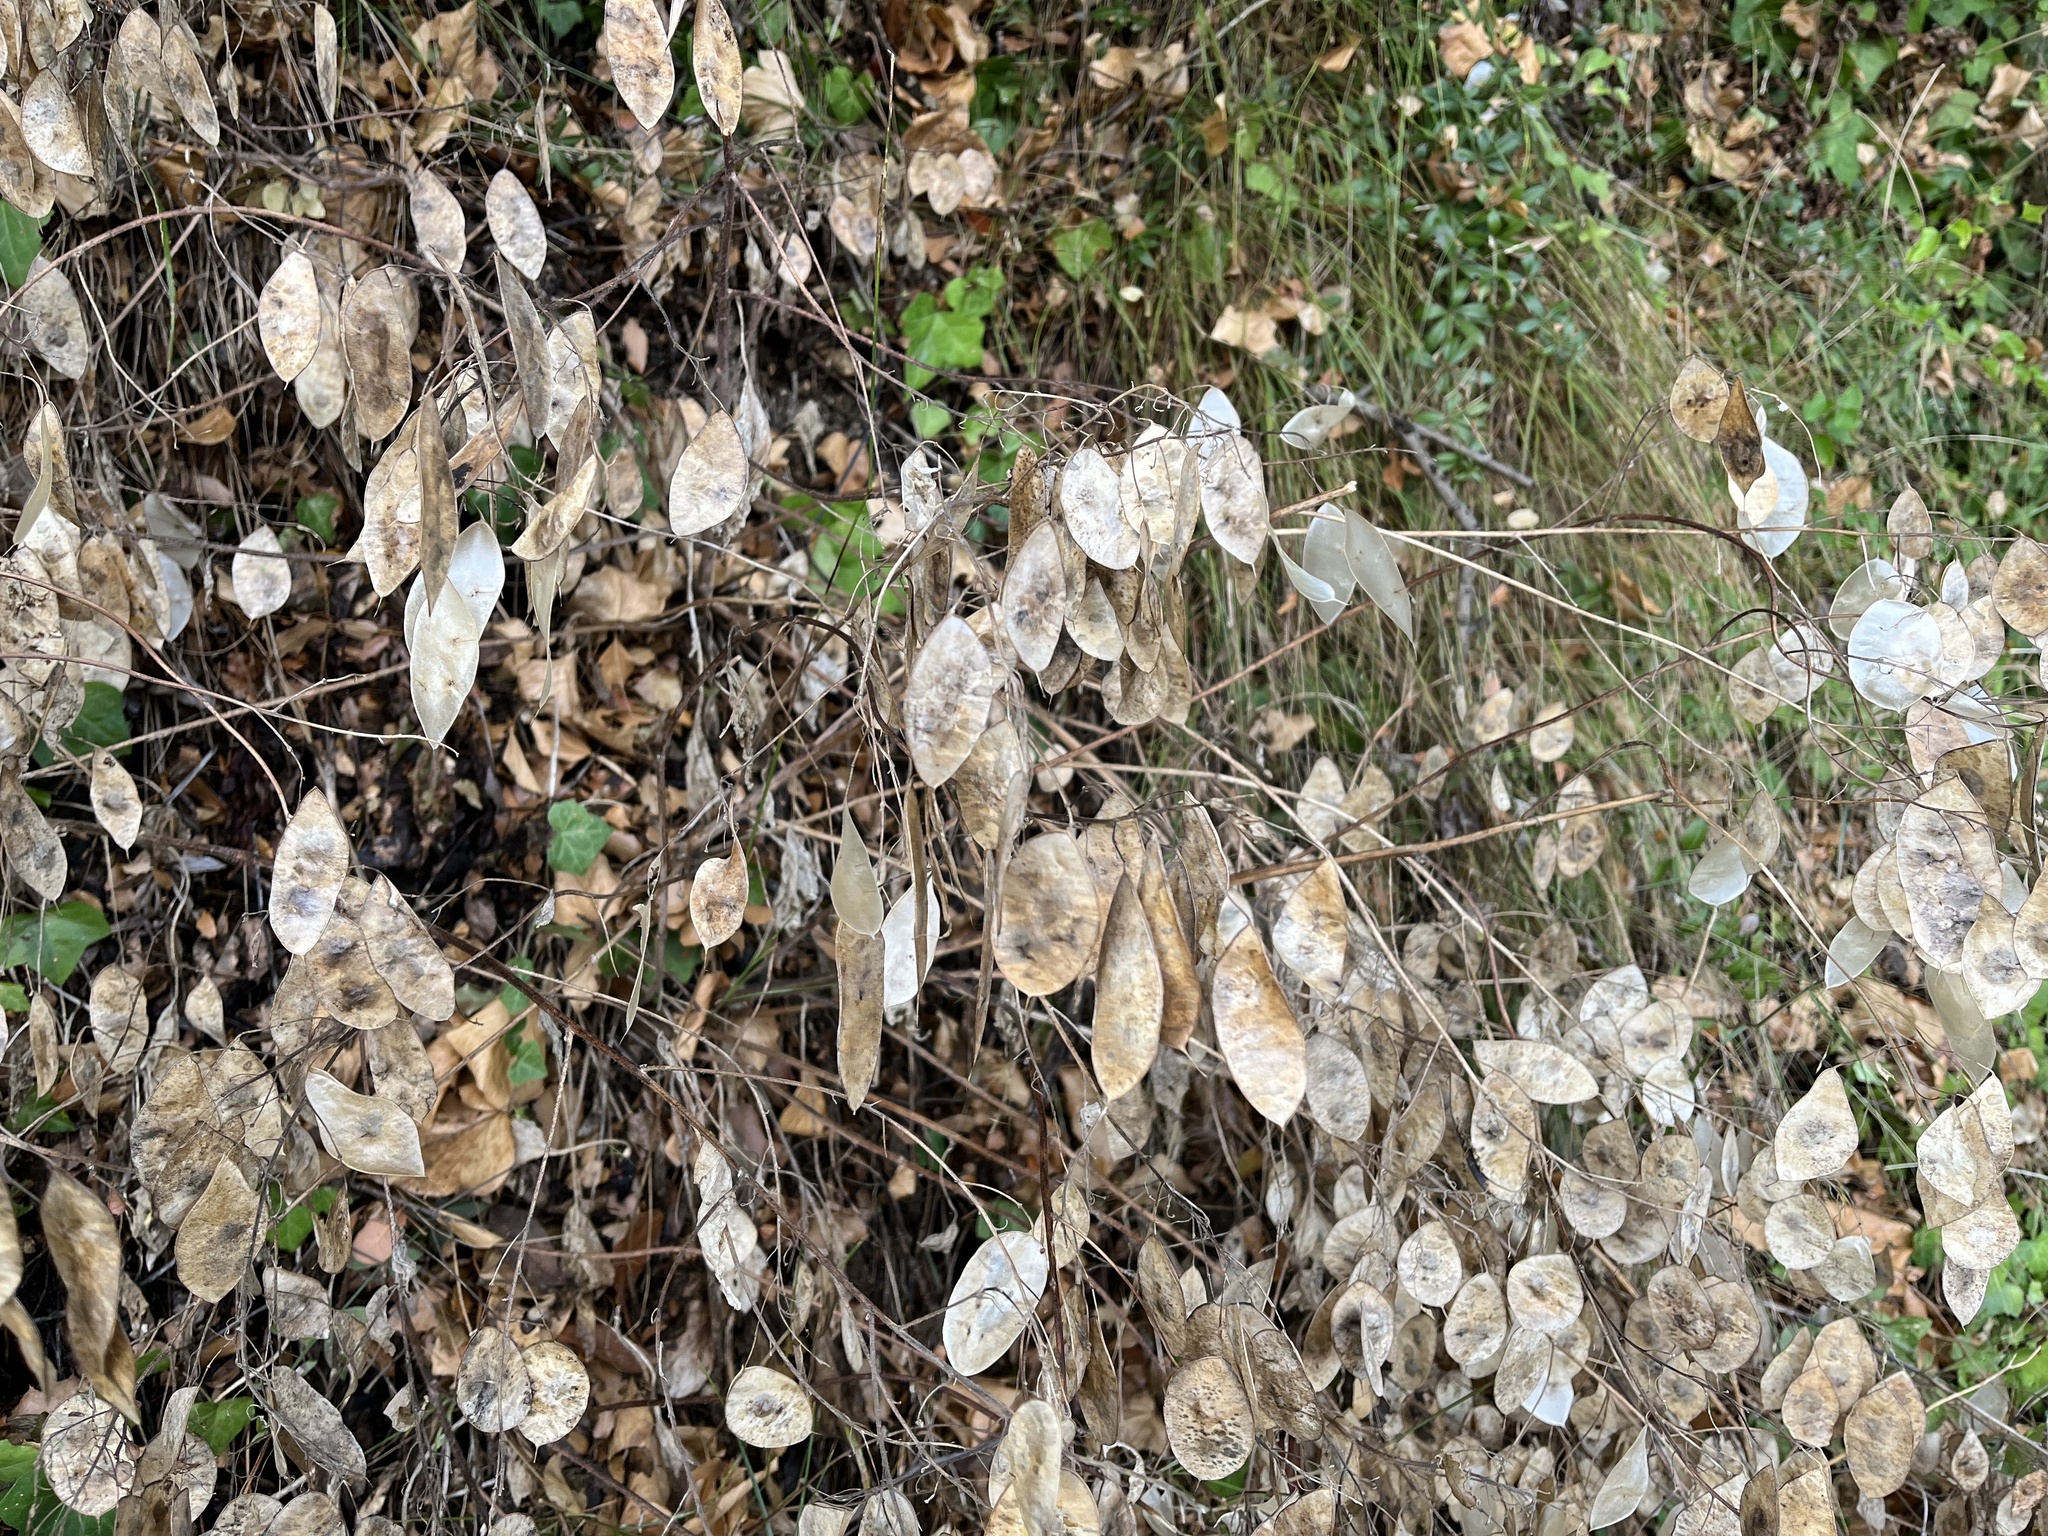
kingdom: Plantae
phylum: Tracheophyta
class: Magnoliopsida
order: Brassicales
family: Brassicaceae
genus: Lunaria
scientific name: Lunaria annua
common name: Honesty
